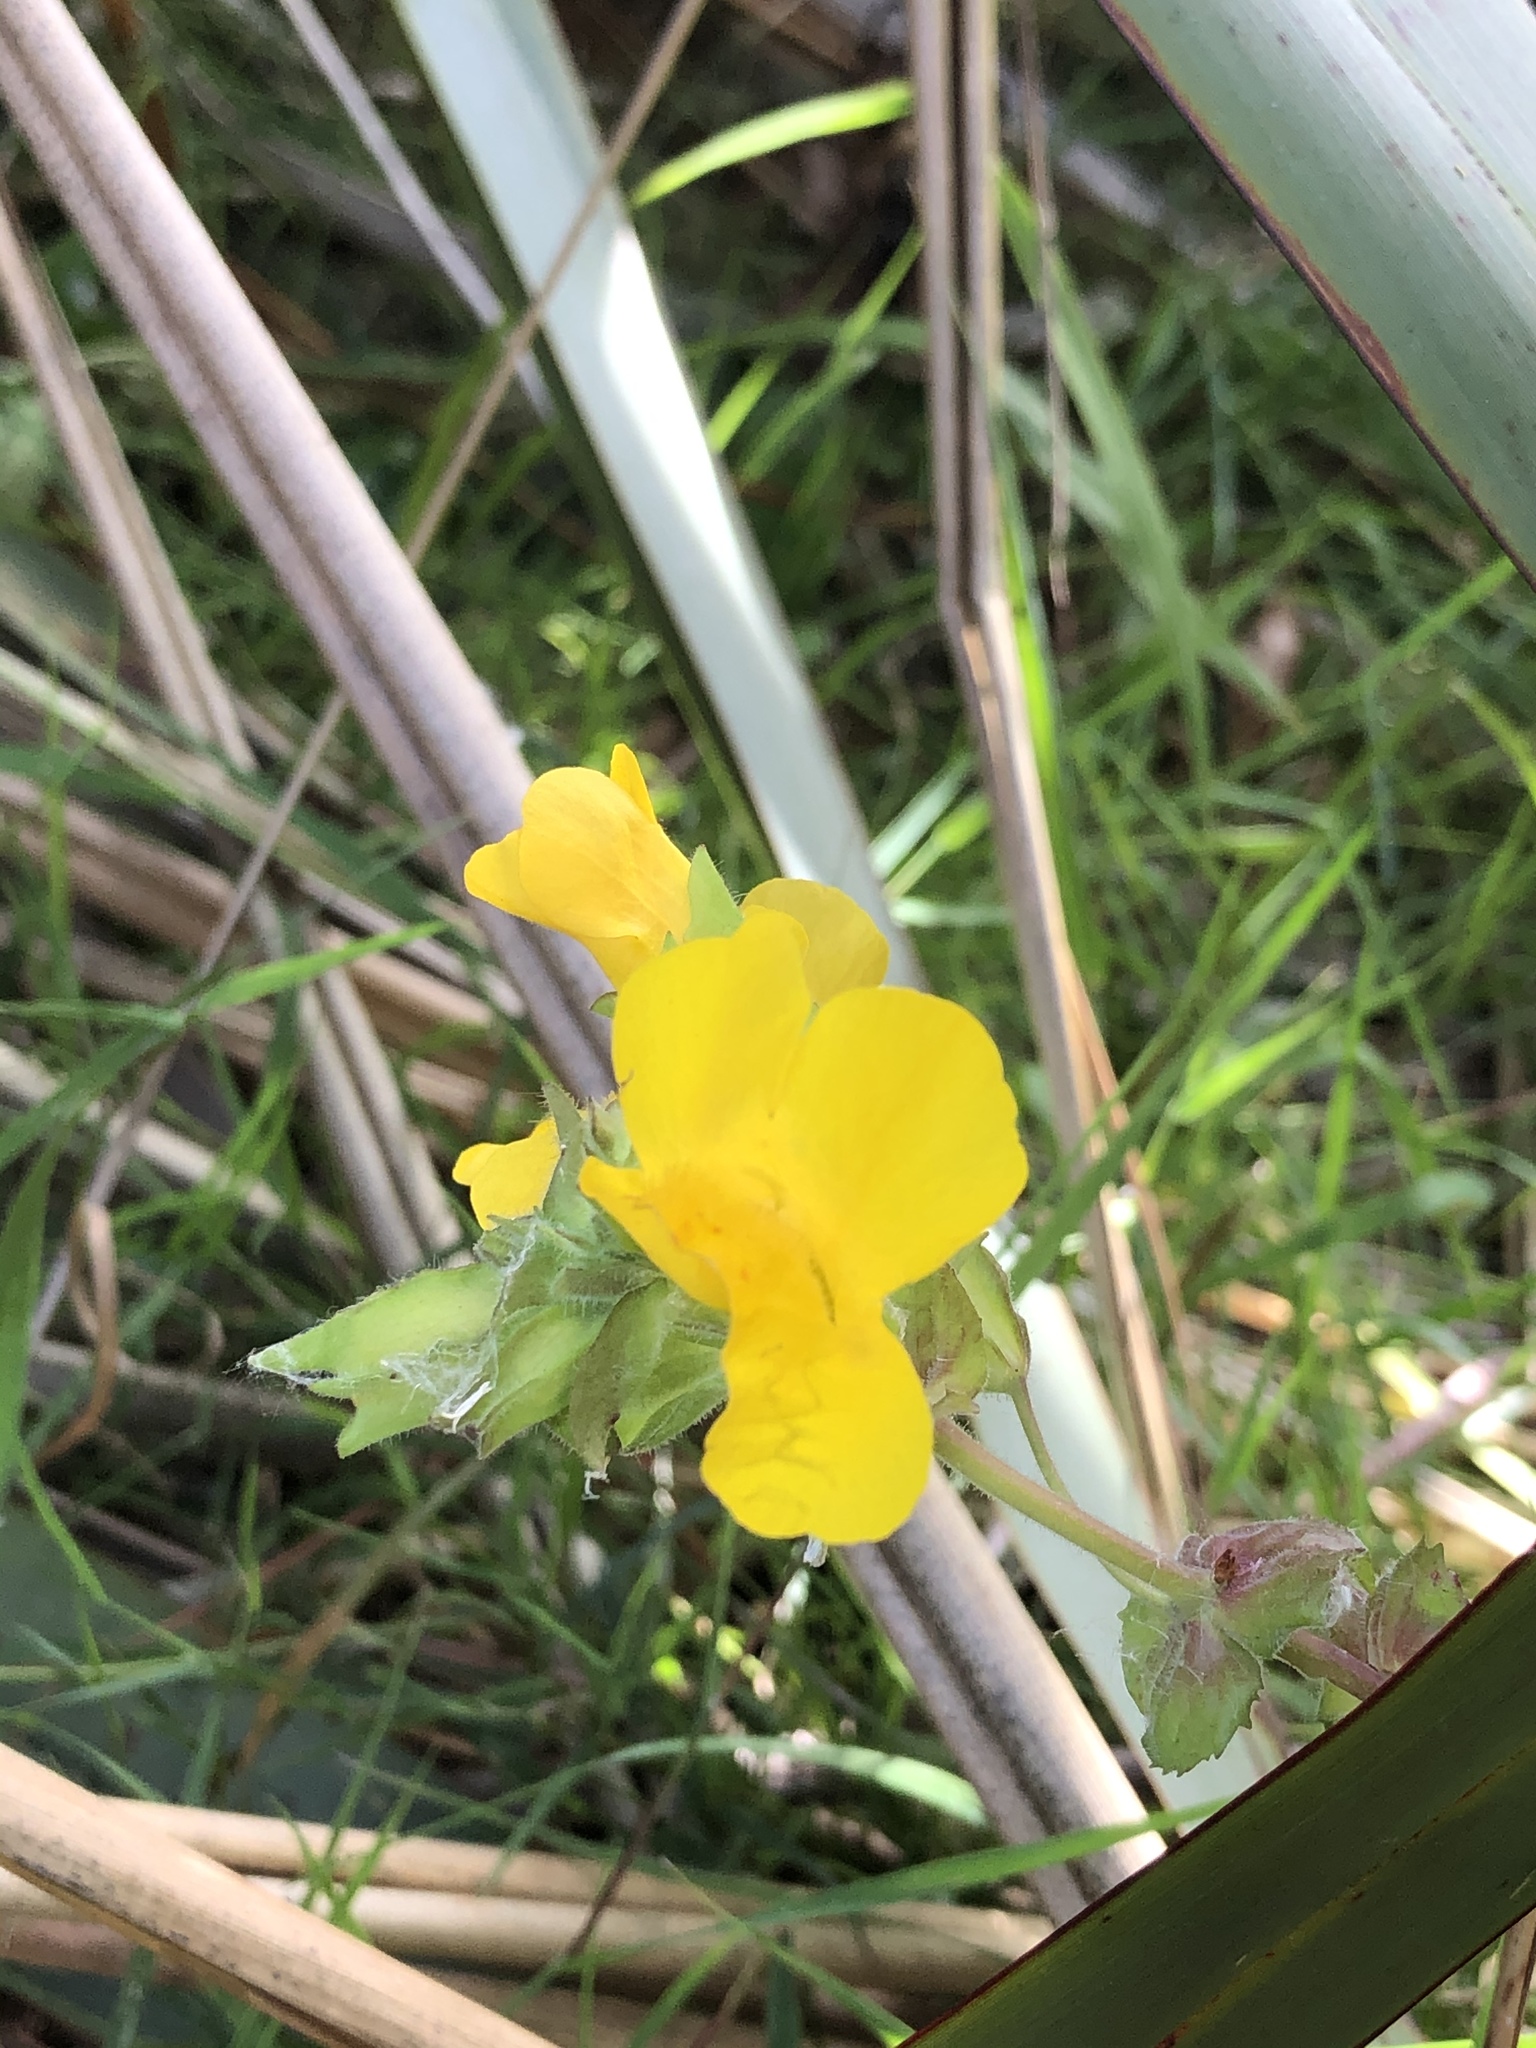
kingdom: Plantae
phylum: Tracheophyta
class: Magnoliopsida
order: Lamiales
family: Phrymaceae
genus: Erythranthe
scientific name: Erythranthe guttata
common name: Monkeyflower
